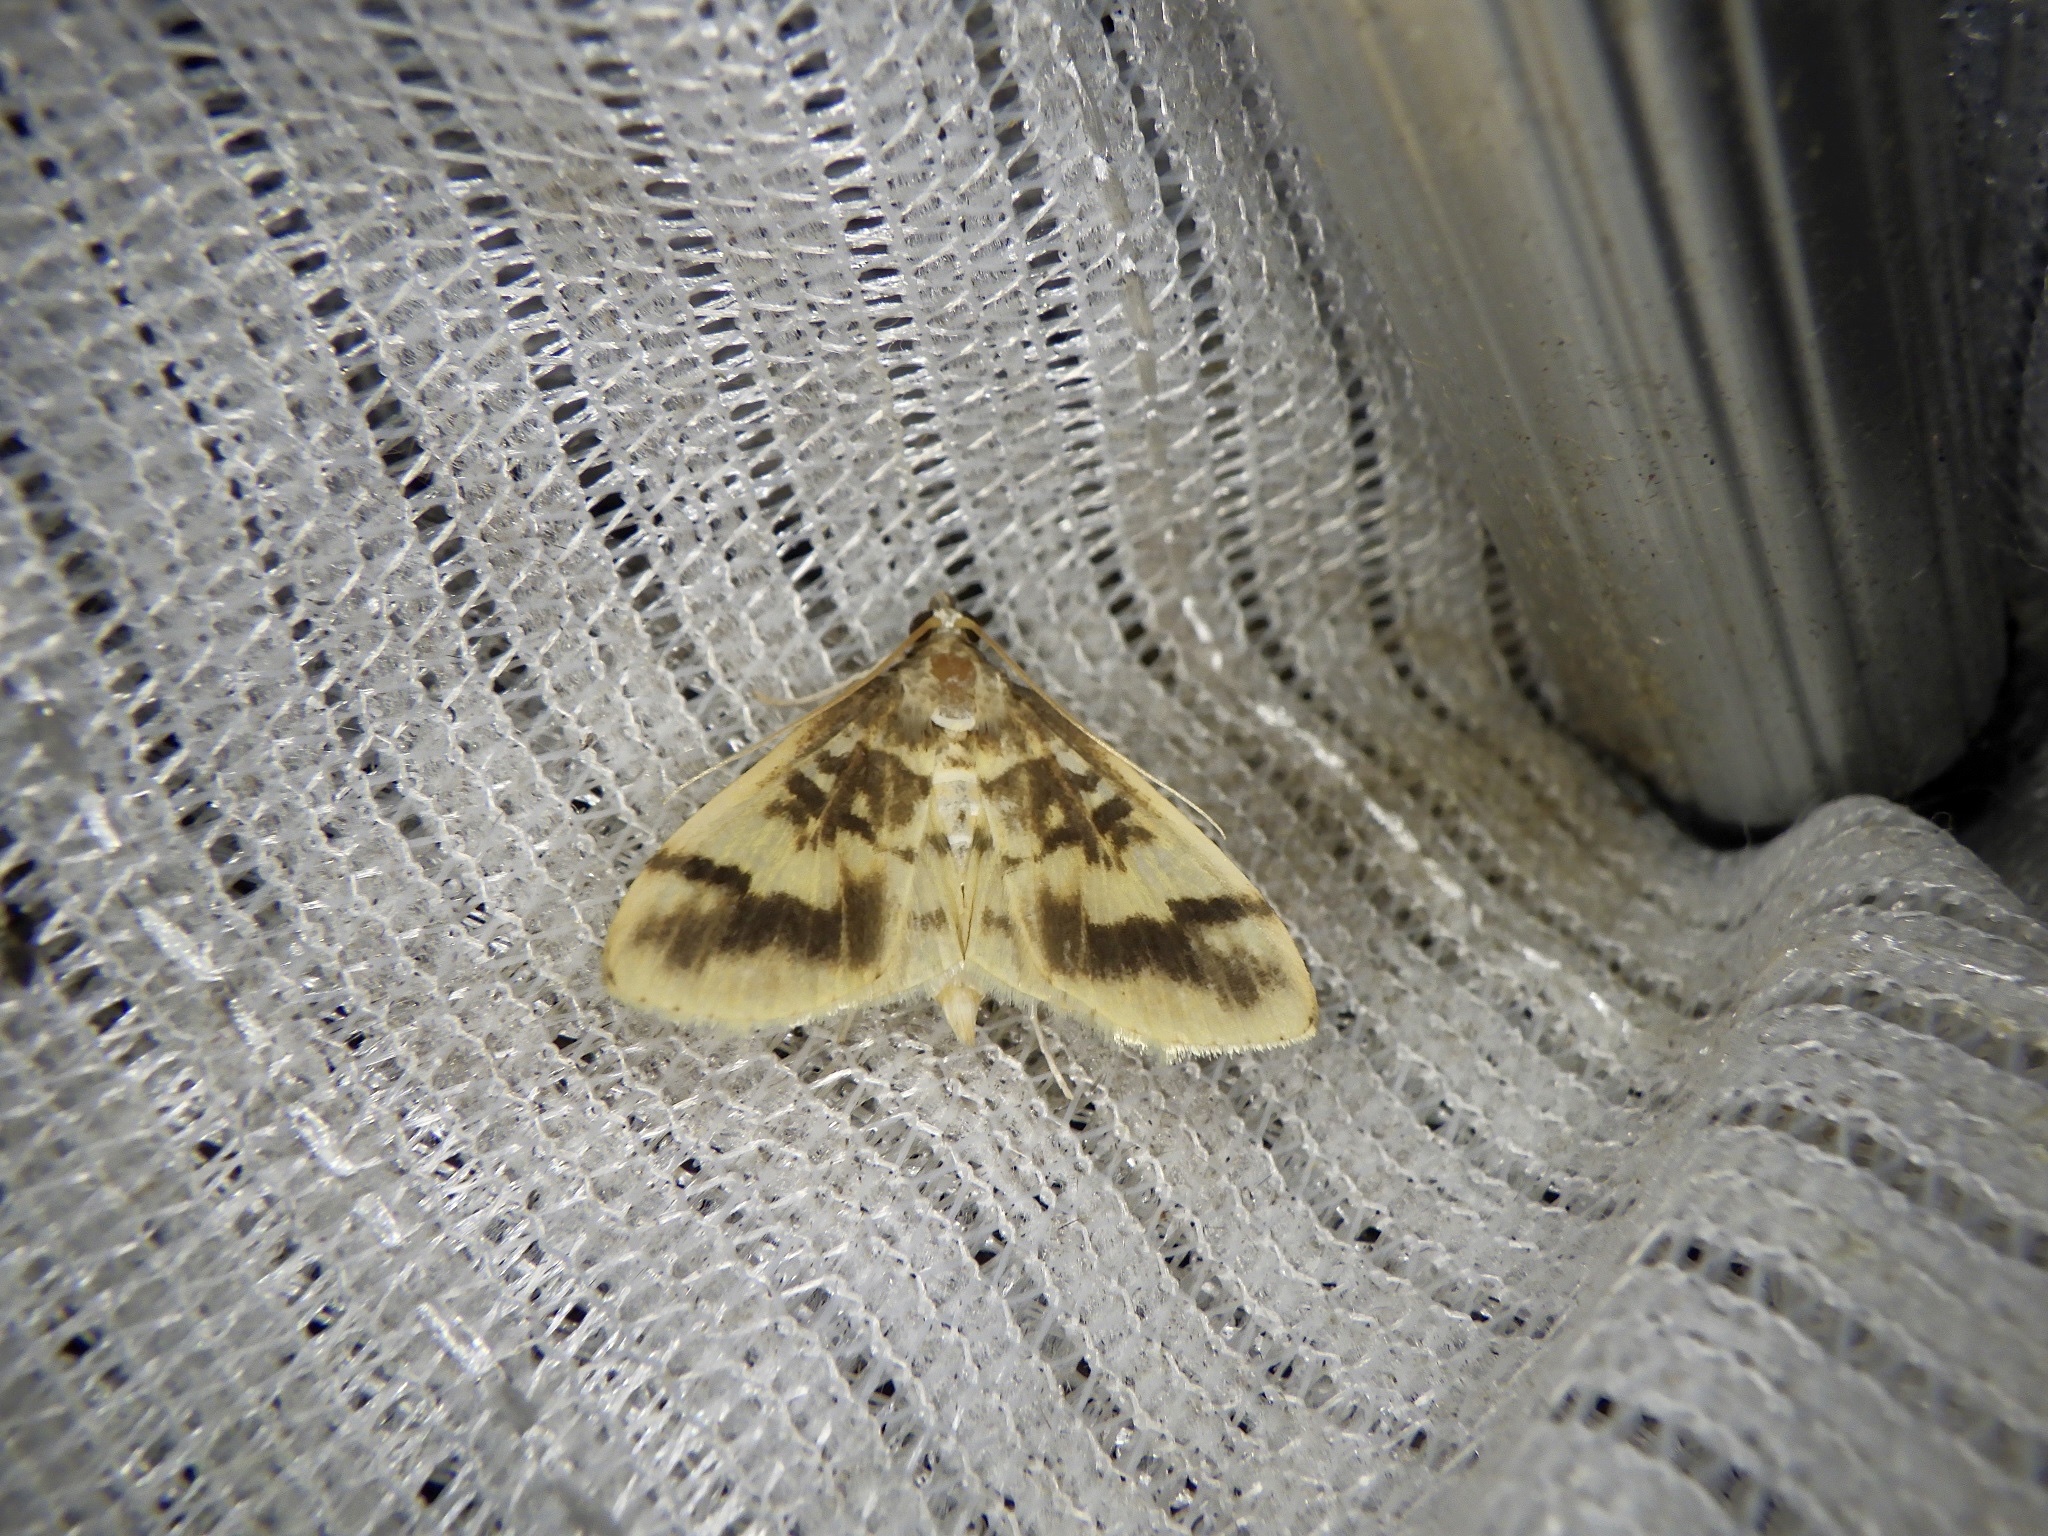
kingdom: Animalia
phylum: Arthropoda
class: Insecta
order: Lepidoptera
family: Crambidae
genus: Pseudebulea
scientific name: Pseudebulea fentoni
